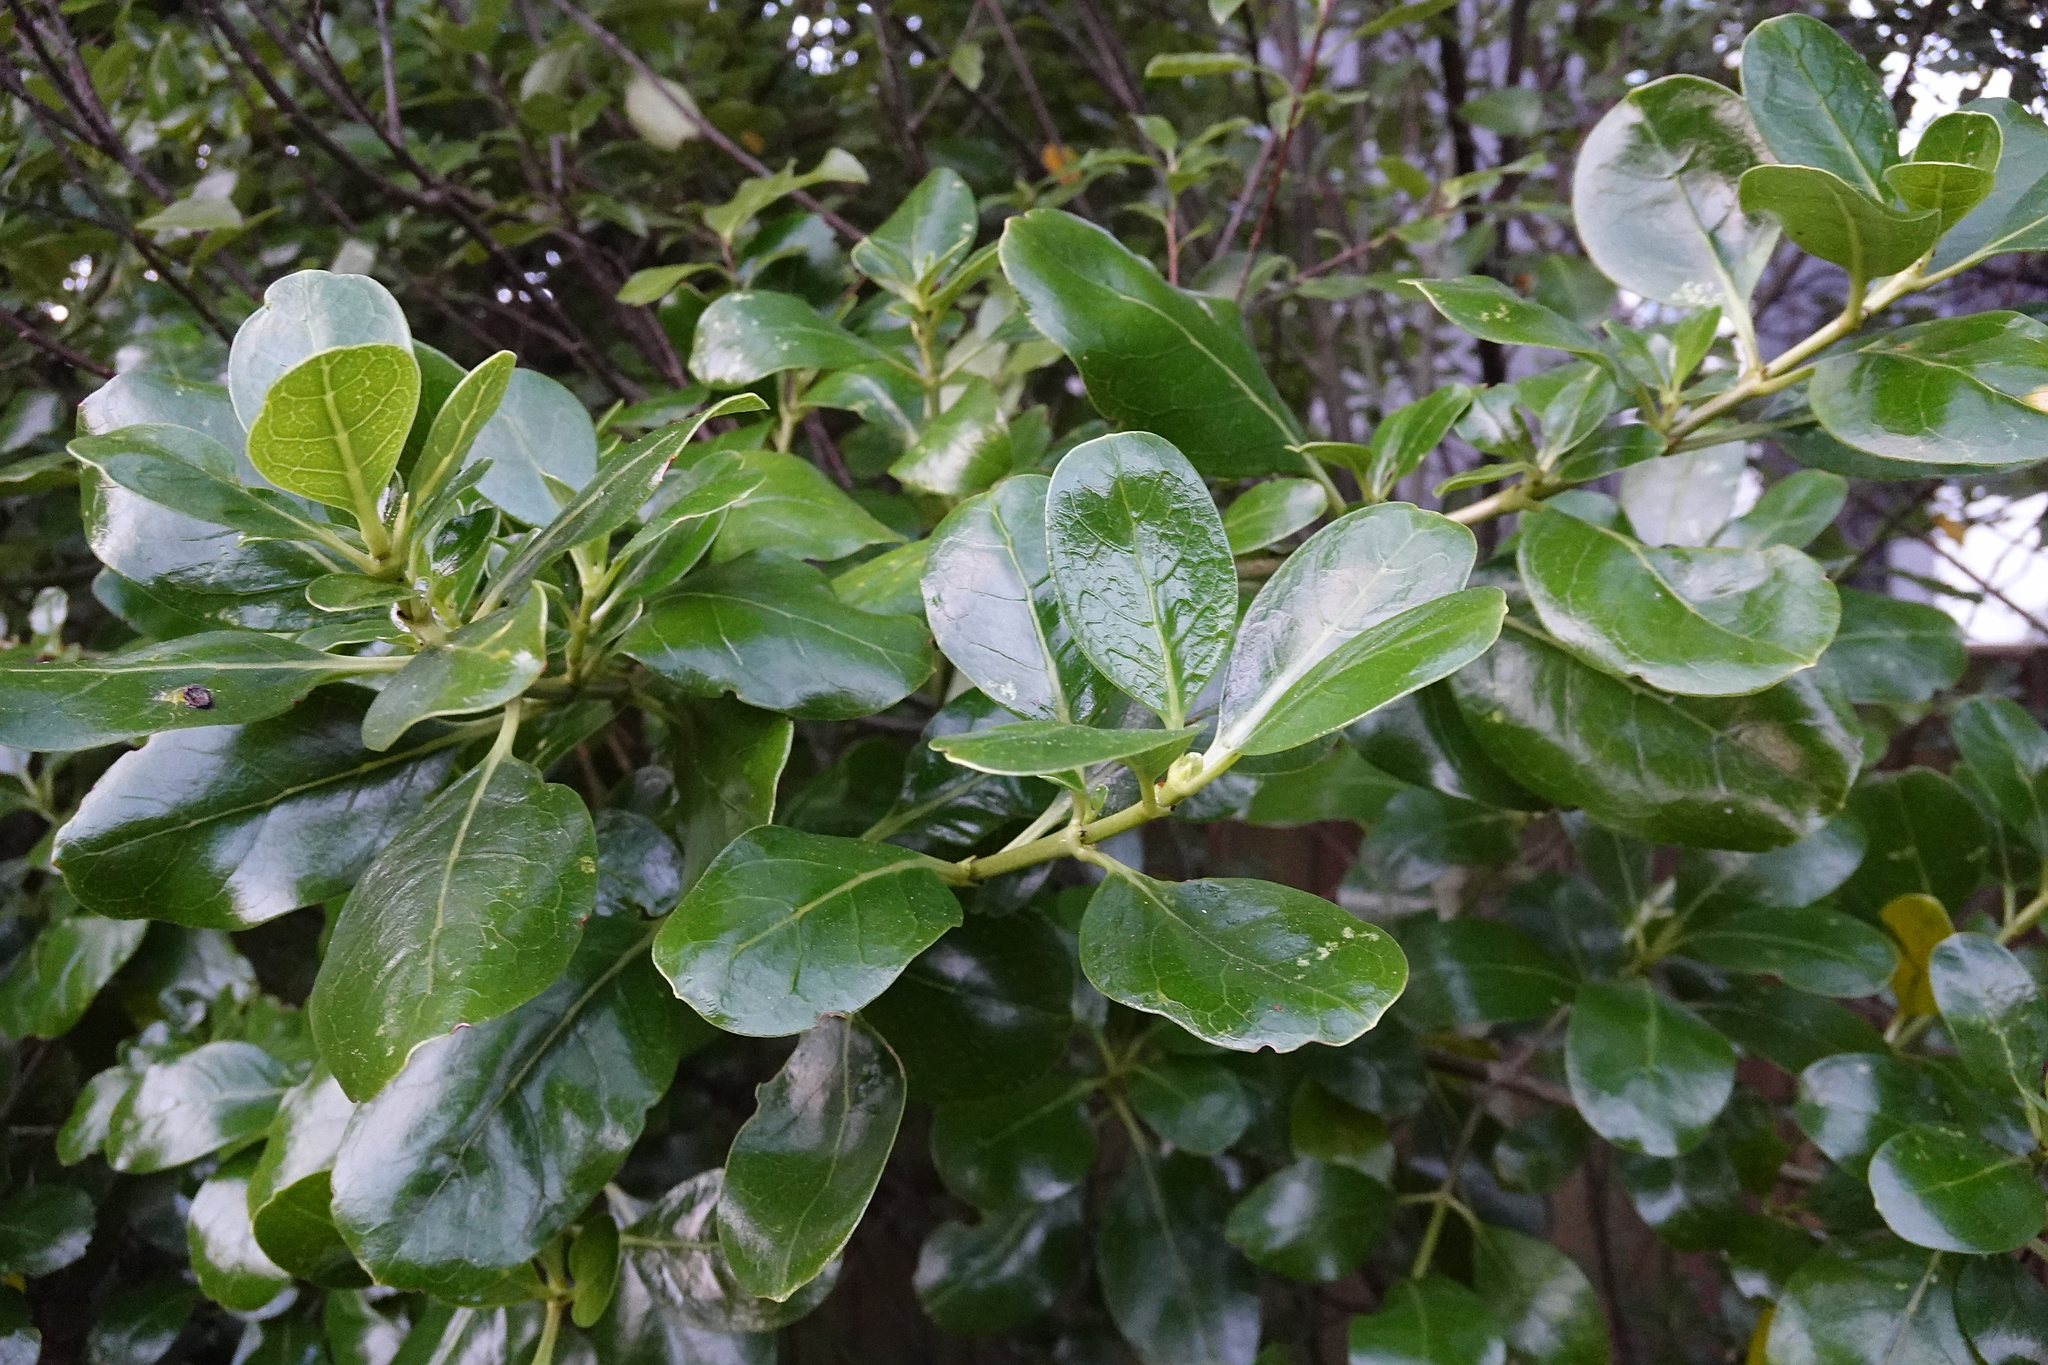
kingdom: Plantae
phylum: Tracheophyta
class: Magnoliopsida
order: Gentianales
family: Rubiaceae
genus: Coprosma
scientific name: Coprosma repens
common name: Tree bedstraw
